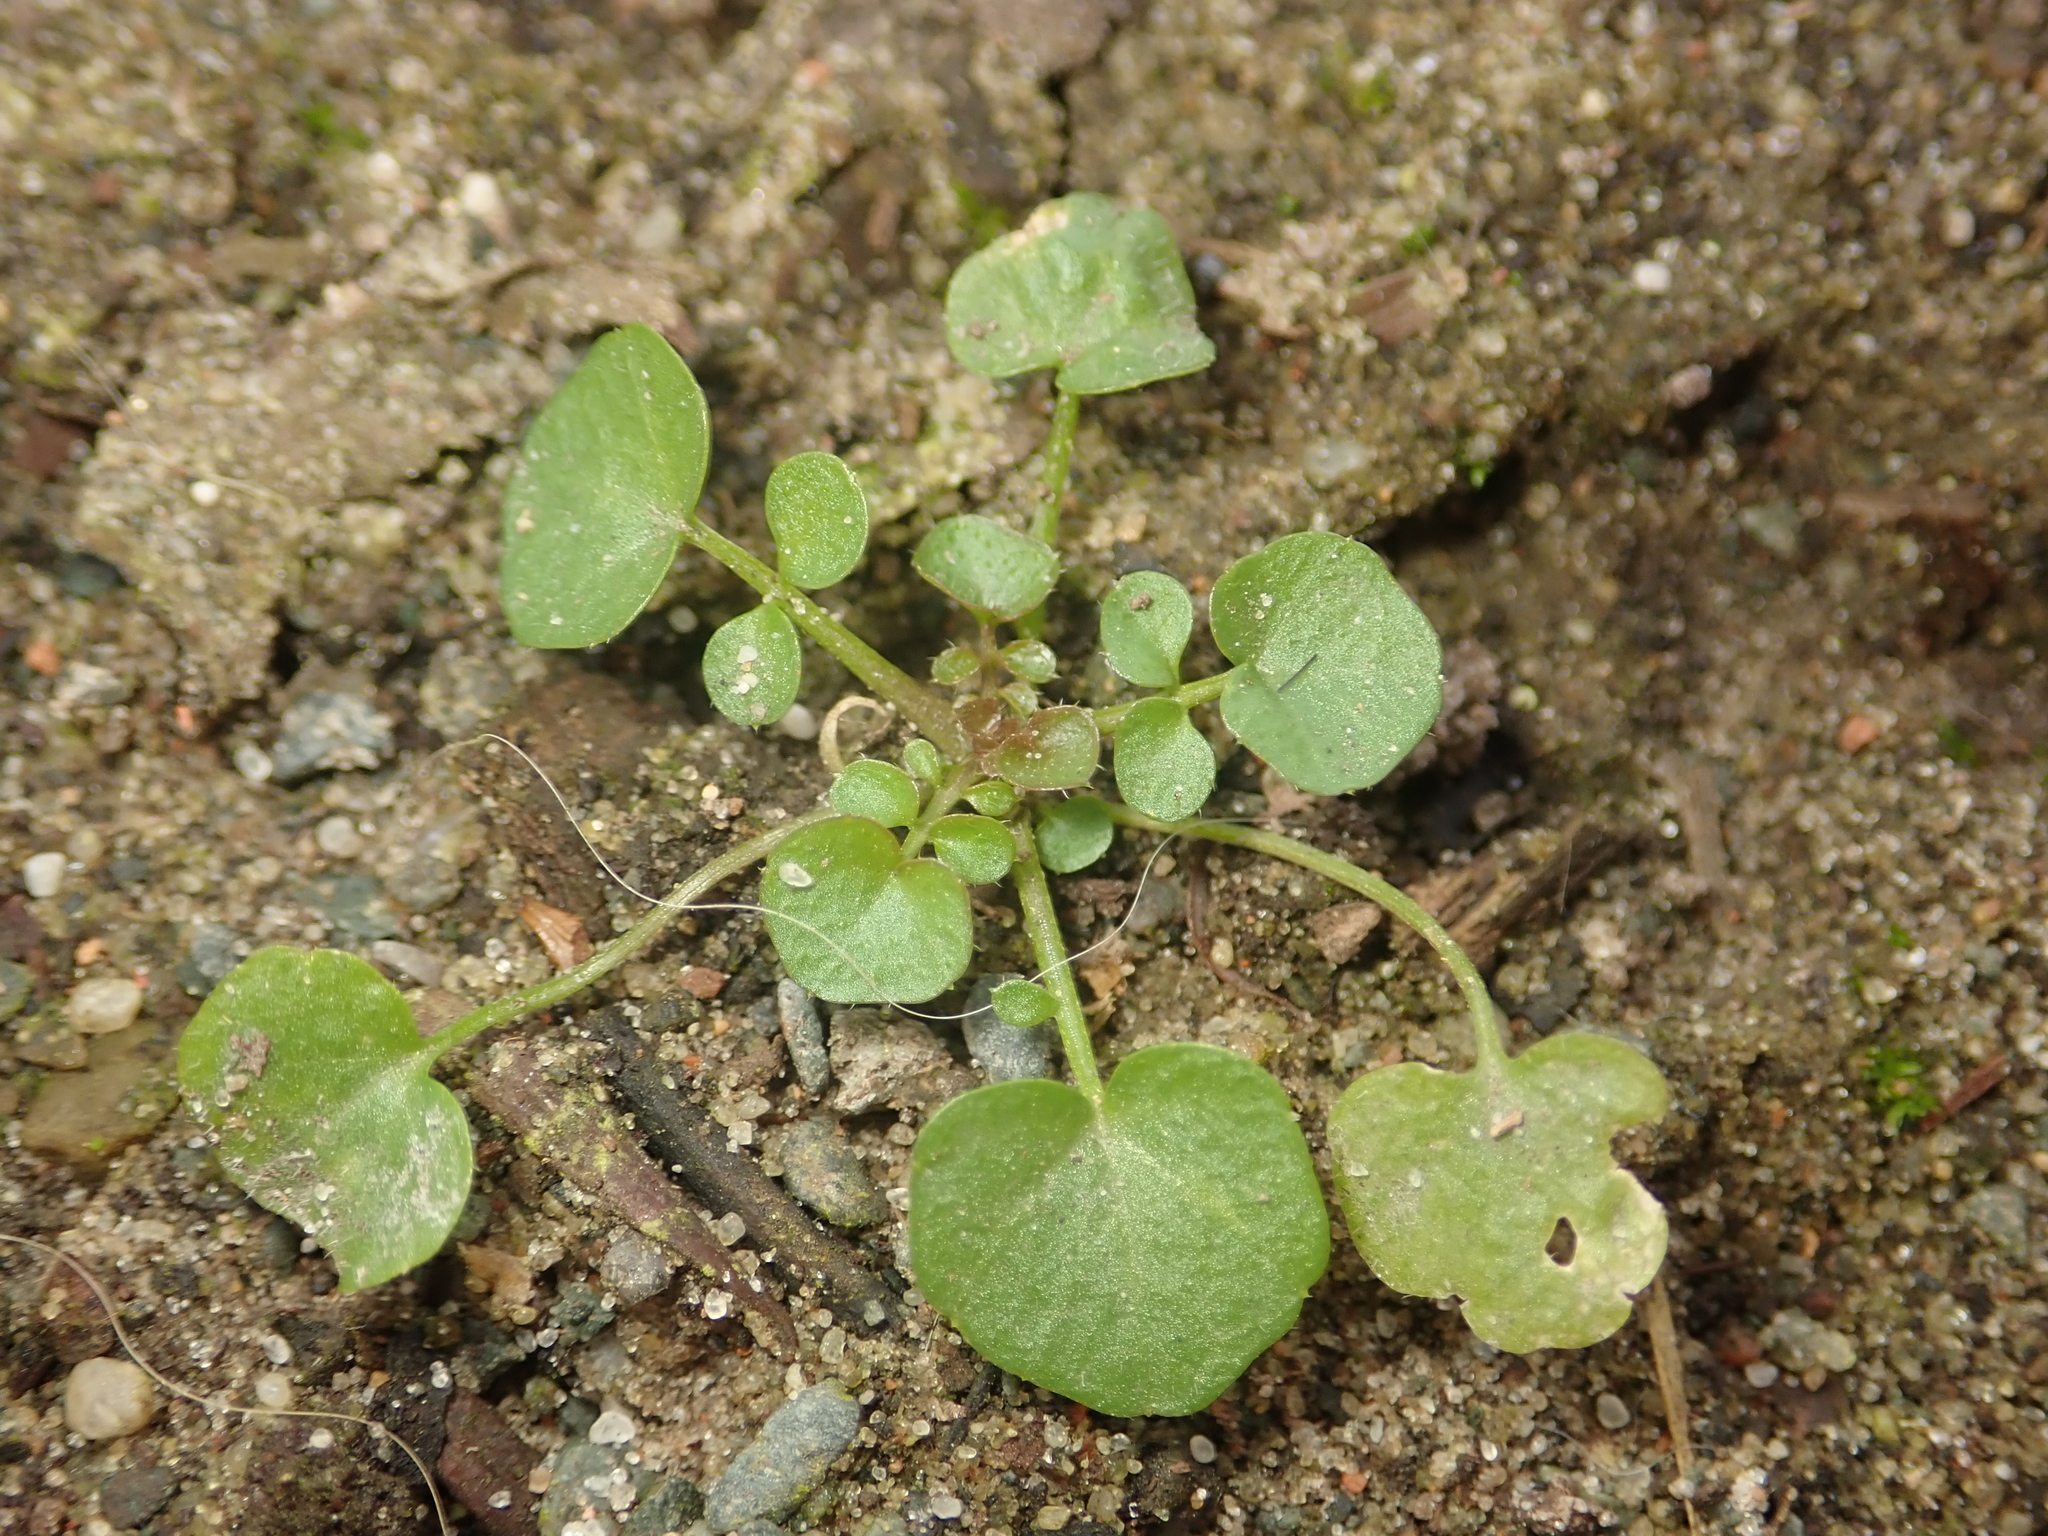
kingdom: Plantae
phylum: Tracheophyta
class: Magnoliopsida
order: Brassicales
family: Brassicaceae
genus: Cardamine
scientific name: Cardamine hirsuta
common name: Hairy bittercress
